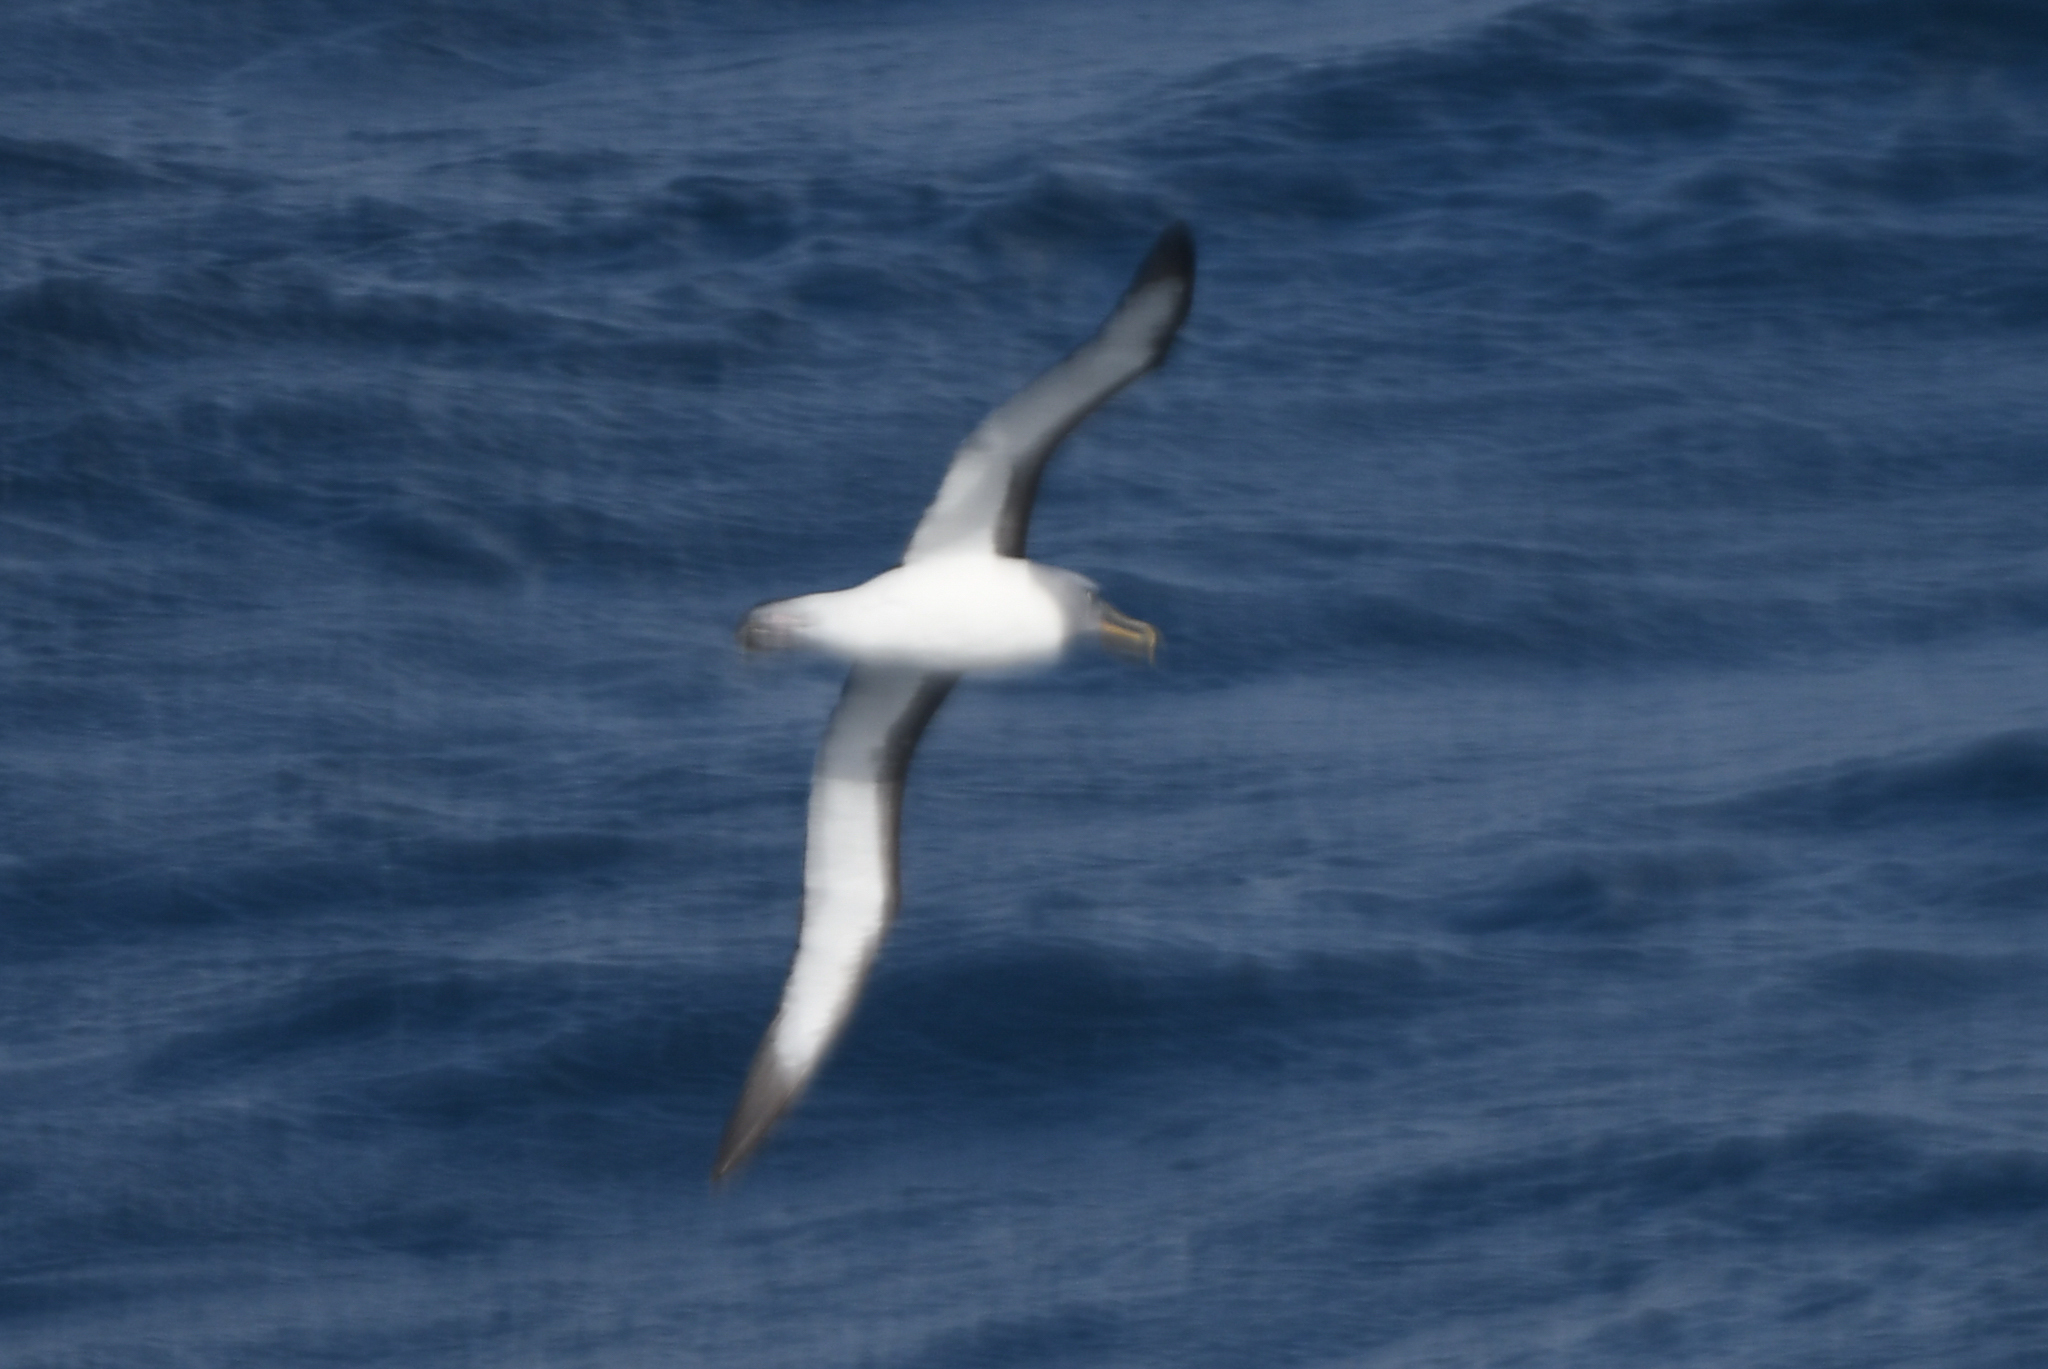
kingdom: Animalia
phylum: Chordata
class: Aves
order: Procellariiformes
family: Diomedeidae
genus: Thalassarche
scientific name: Thalassarche bulleri
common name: Buller's albatross
